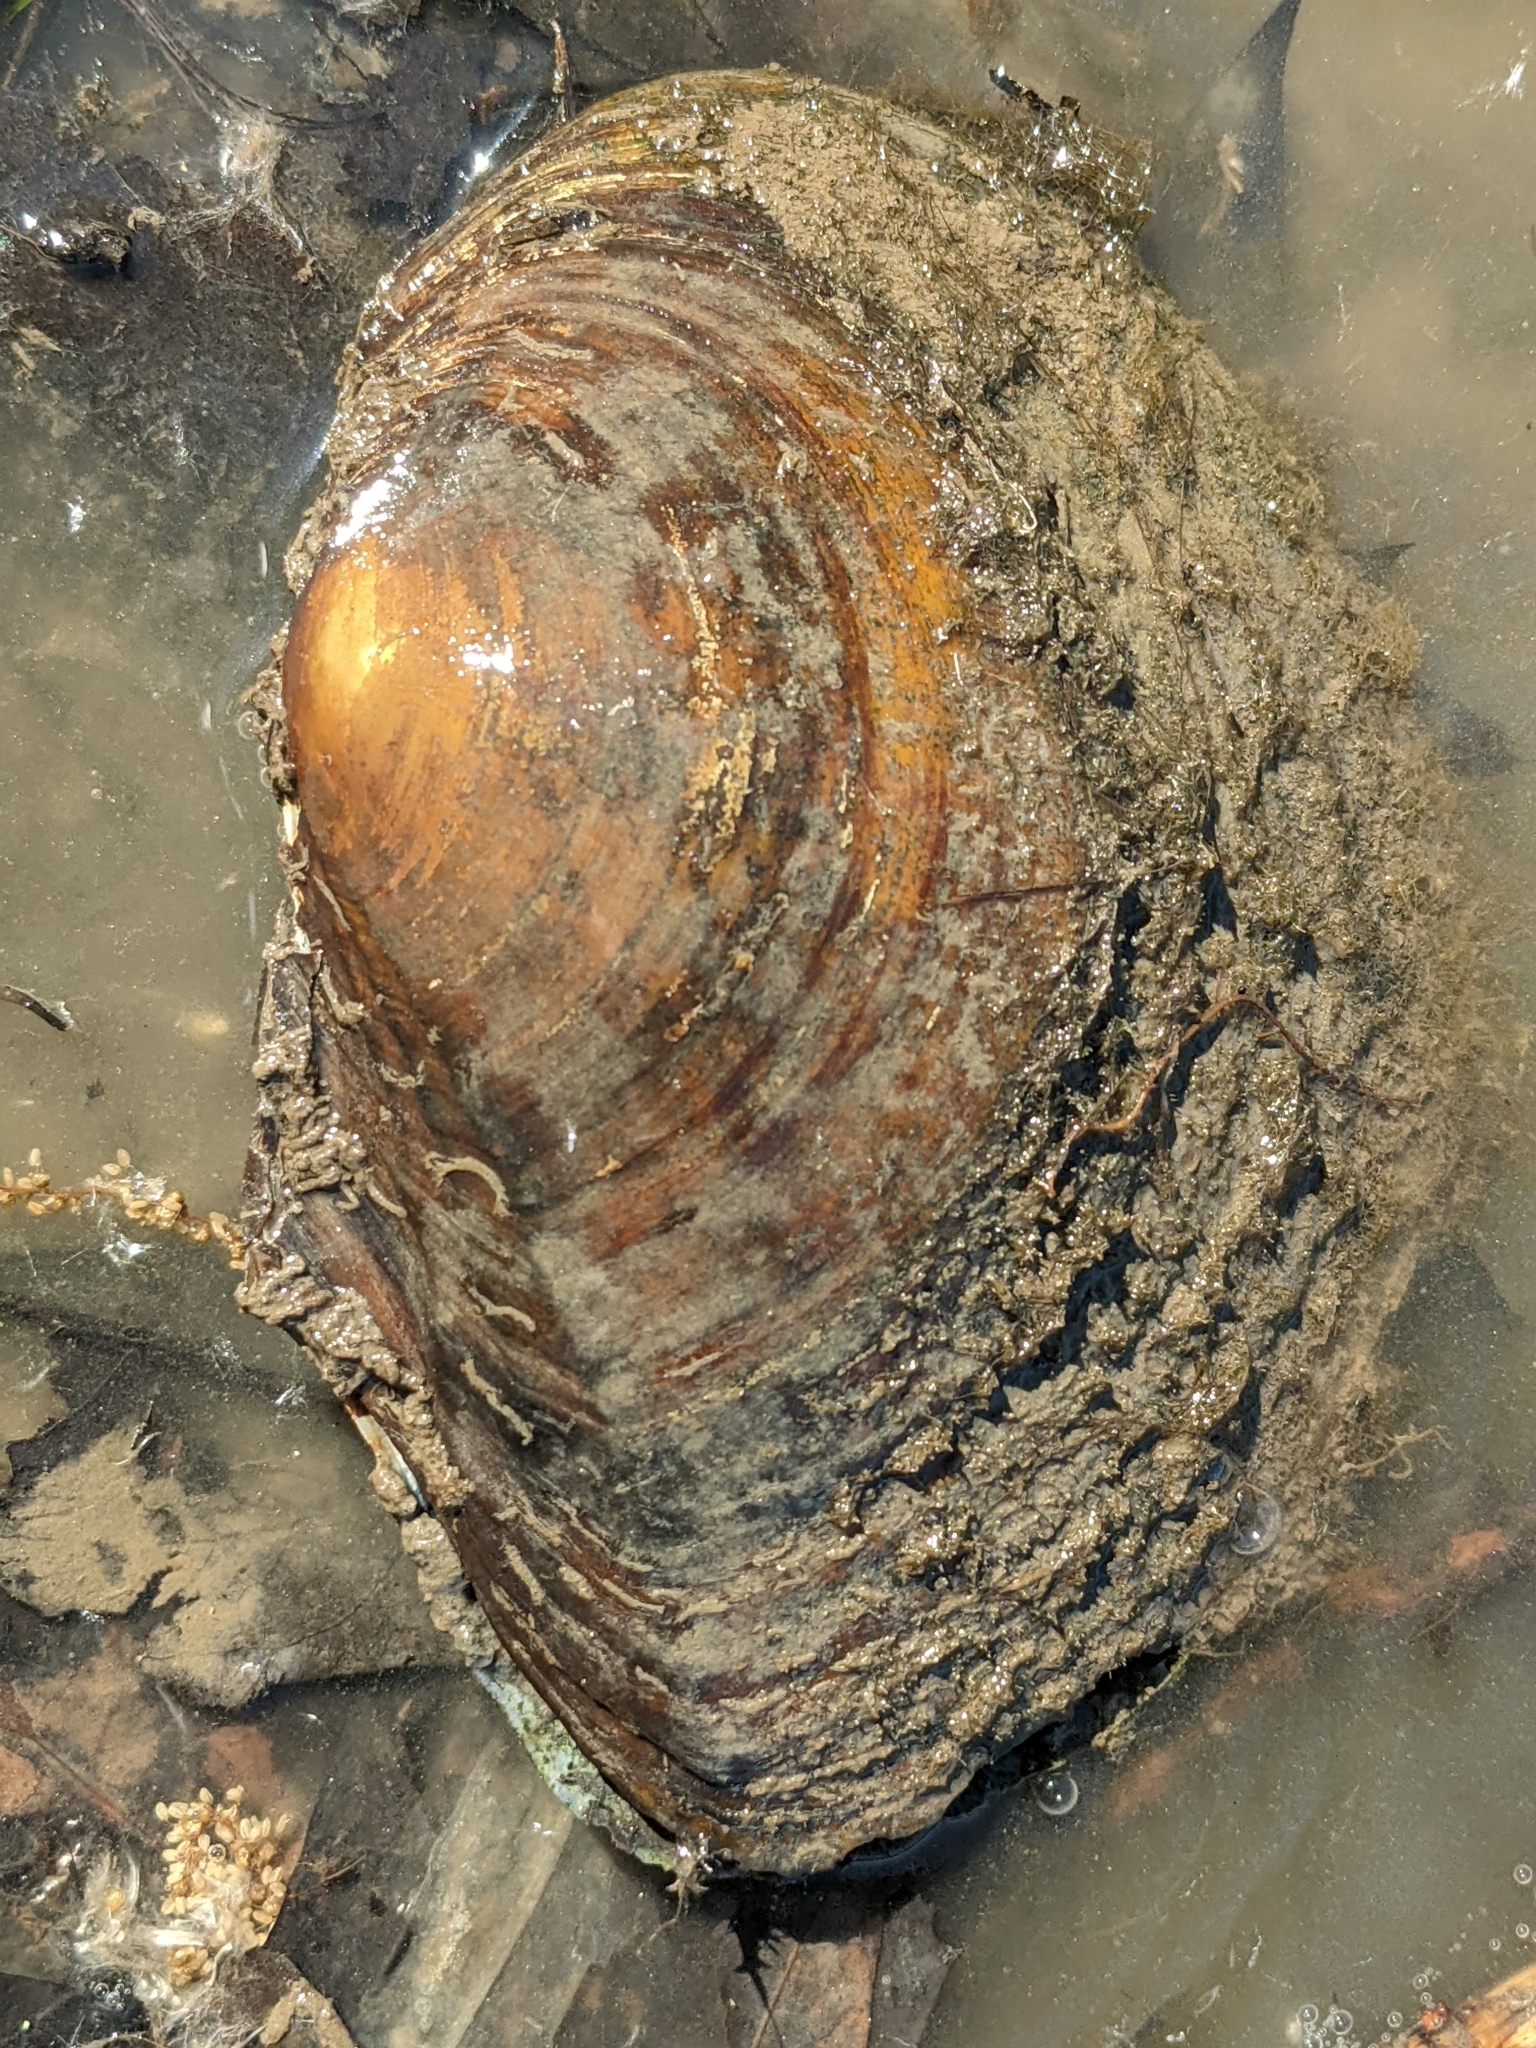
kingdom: Animalia
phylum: Mollusca
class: Bivalvia
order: Unionida
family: Unionidae
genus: Sinanodonta
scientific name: Sinanodonta woodiana
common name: Chinese pond mussel
